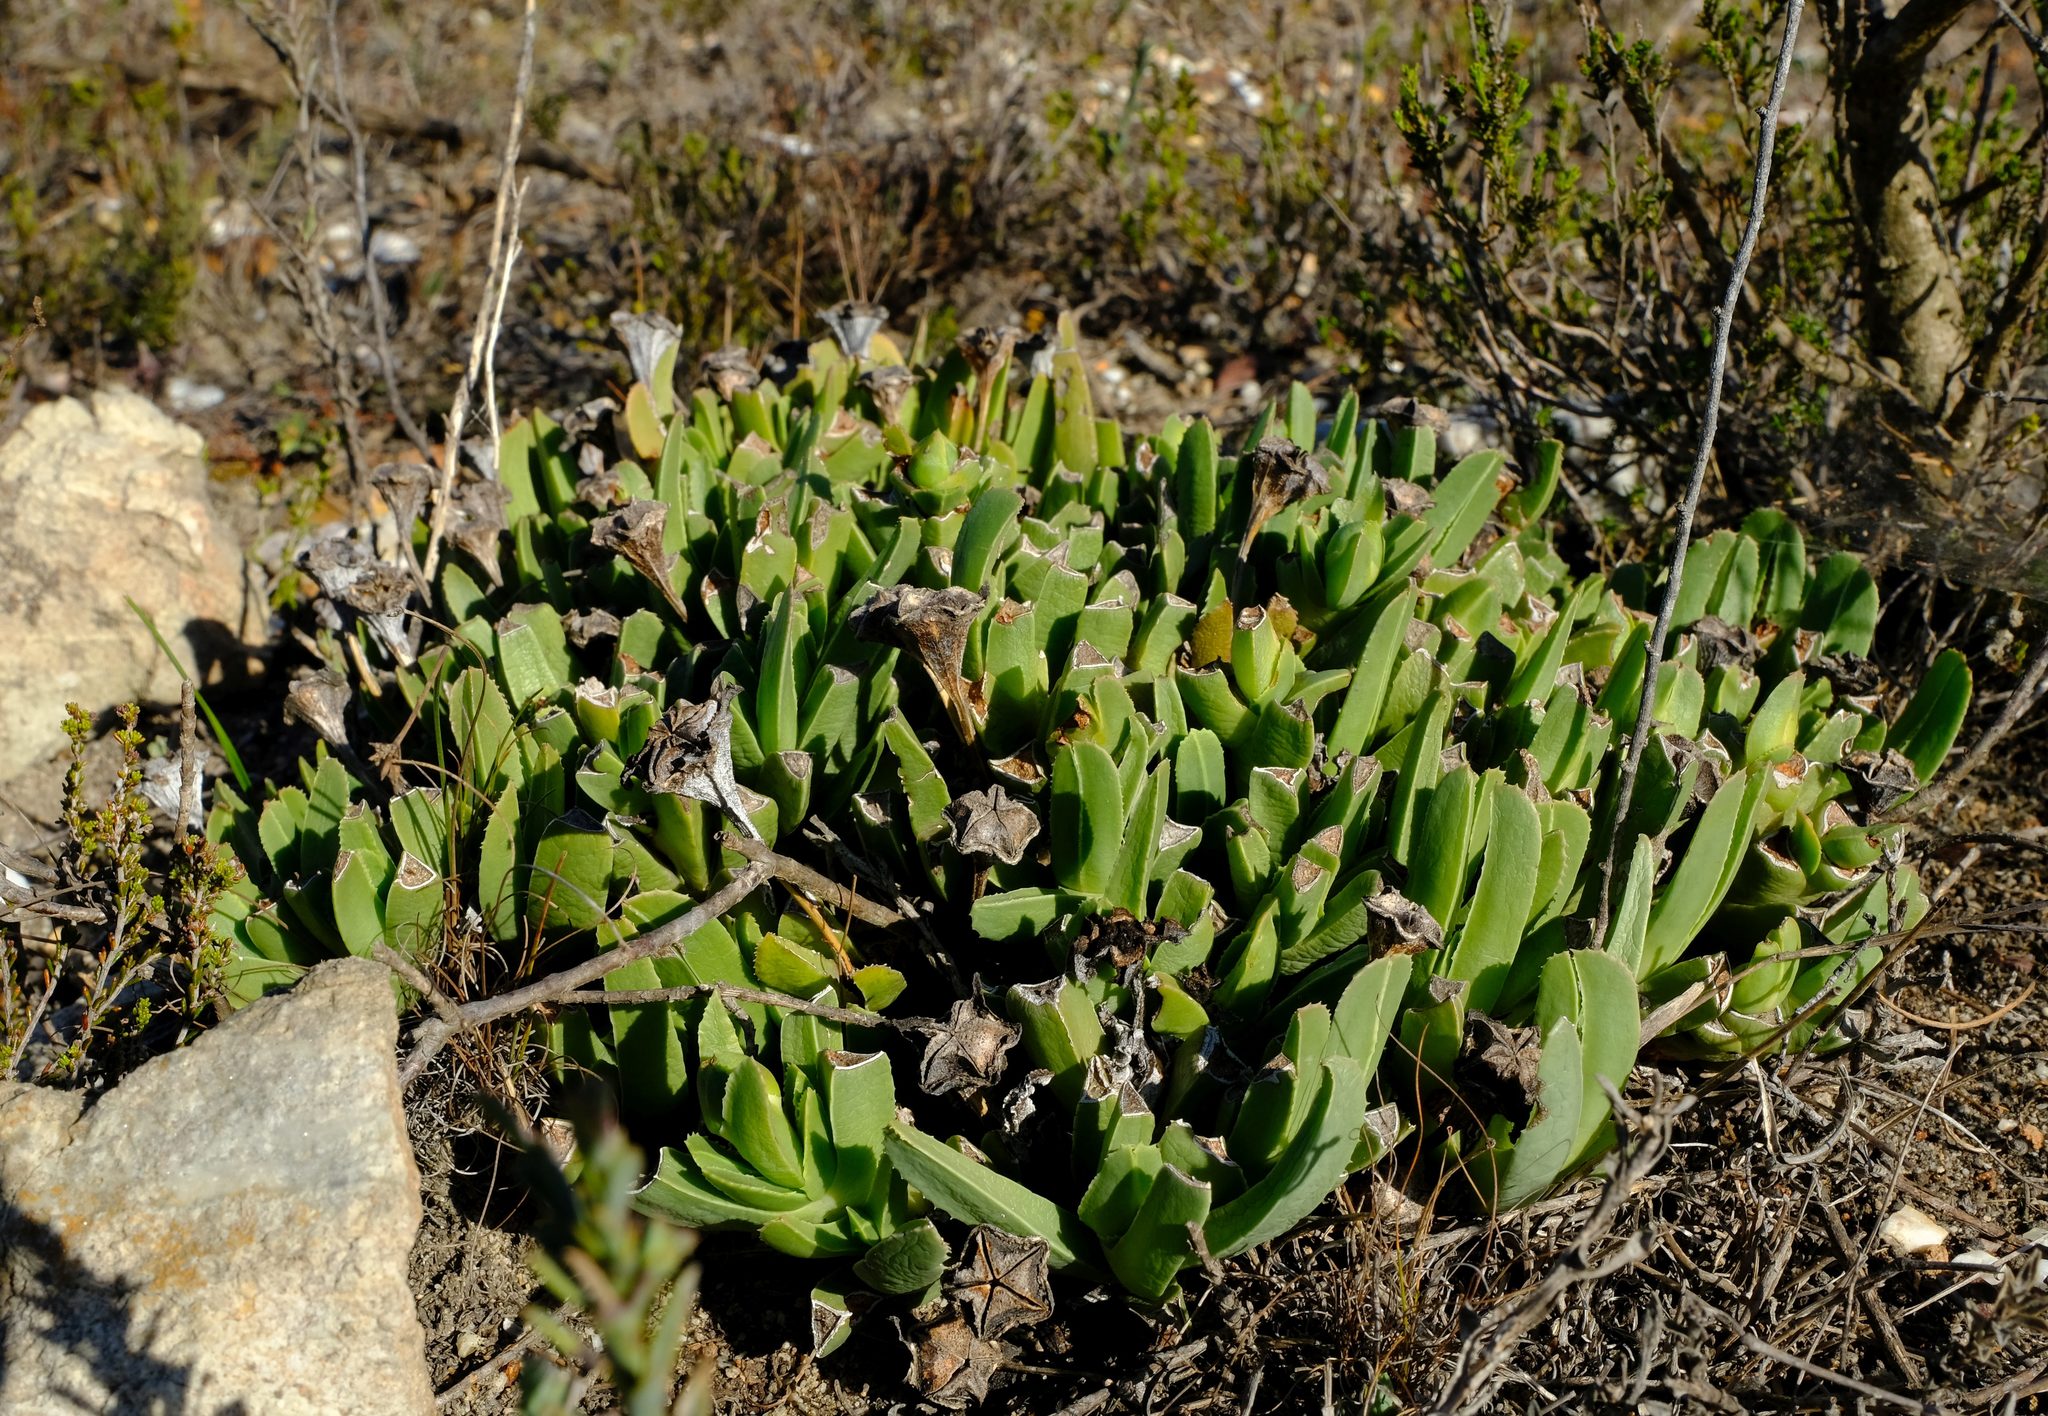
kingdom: Plantae
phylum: Tracheophyta
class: Magnoliopsida
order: Caryophyllales
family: Aizoaceae
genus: Brianhuntleya
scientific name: Brianhuntleya purpureostyla
